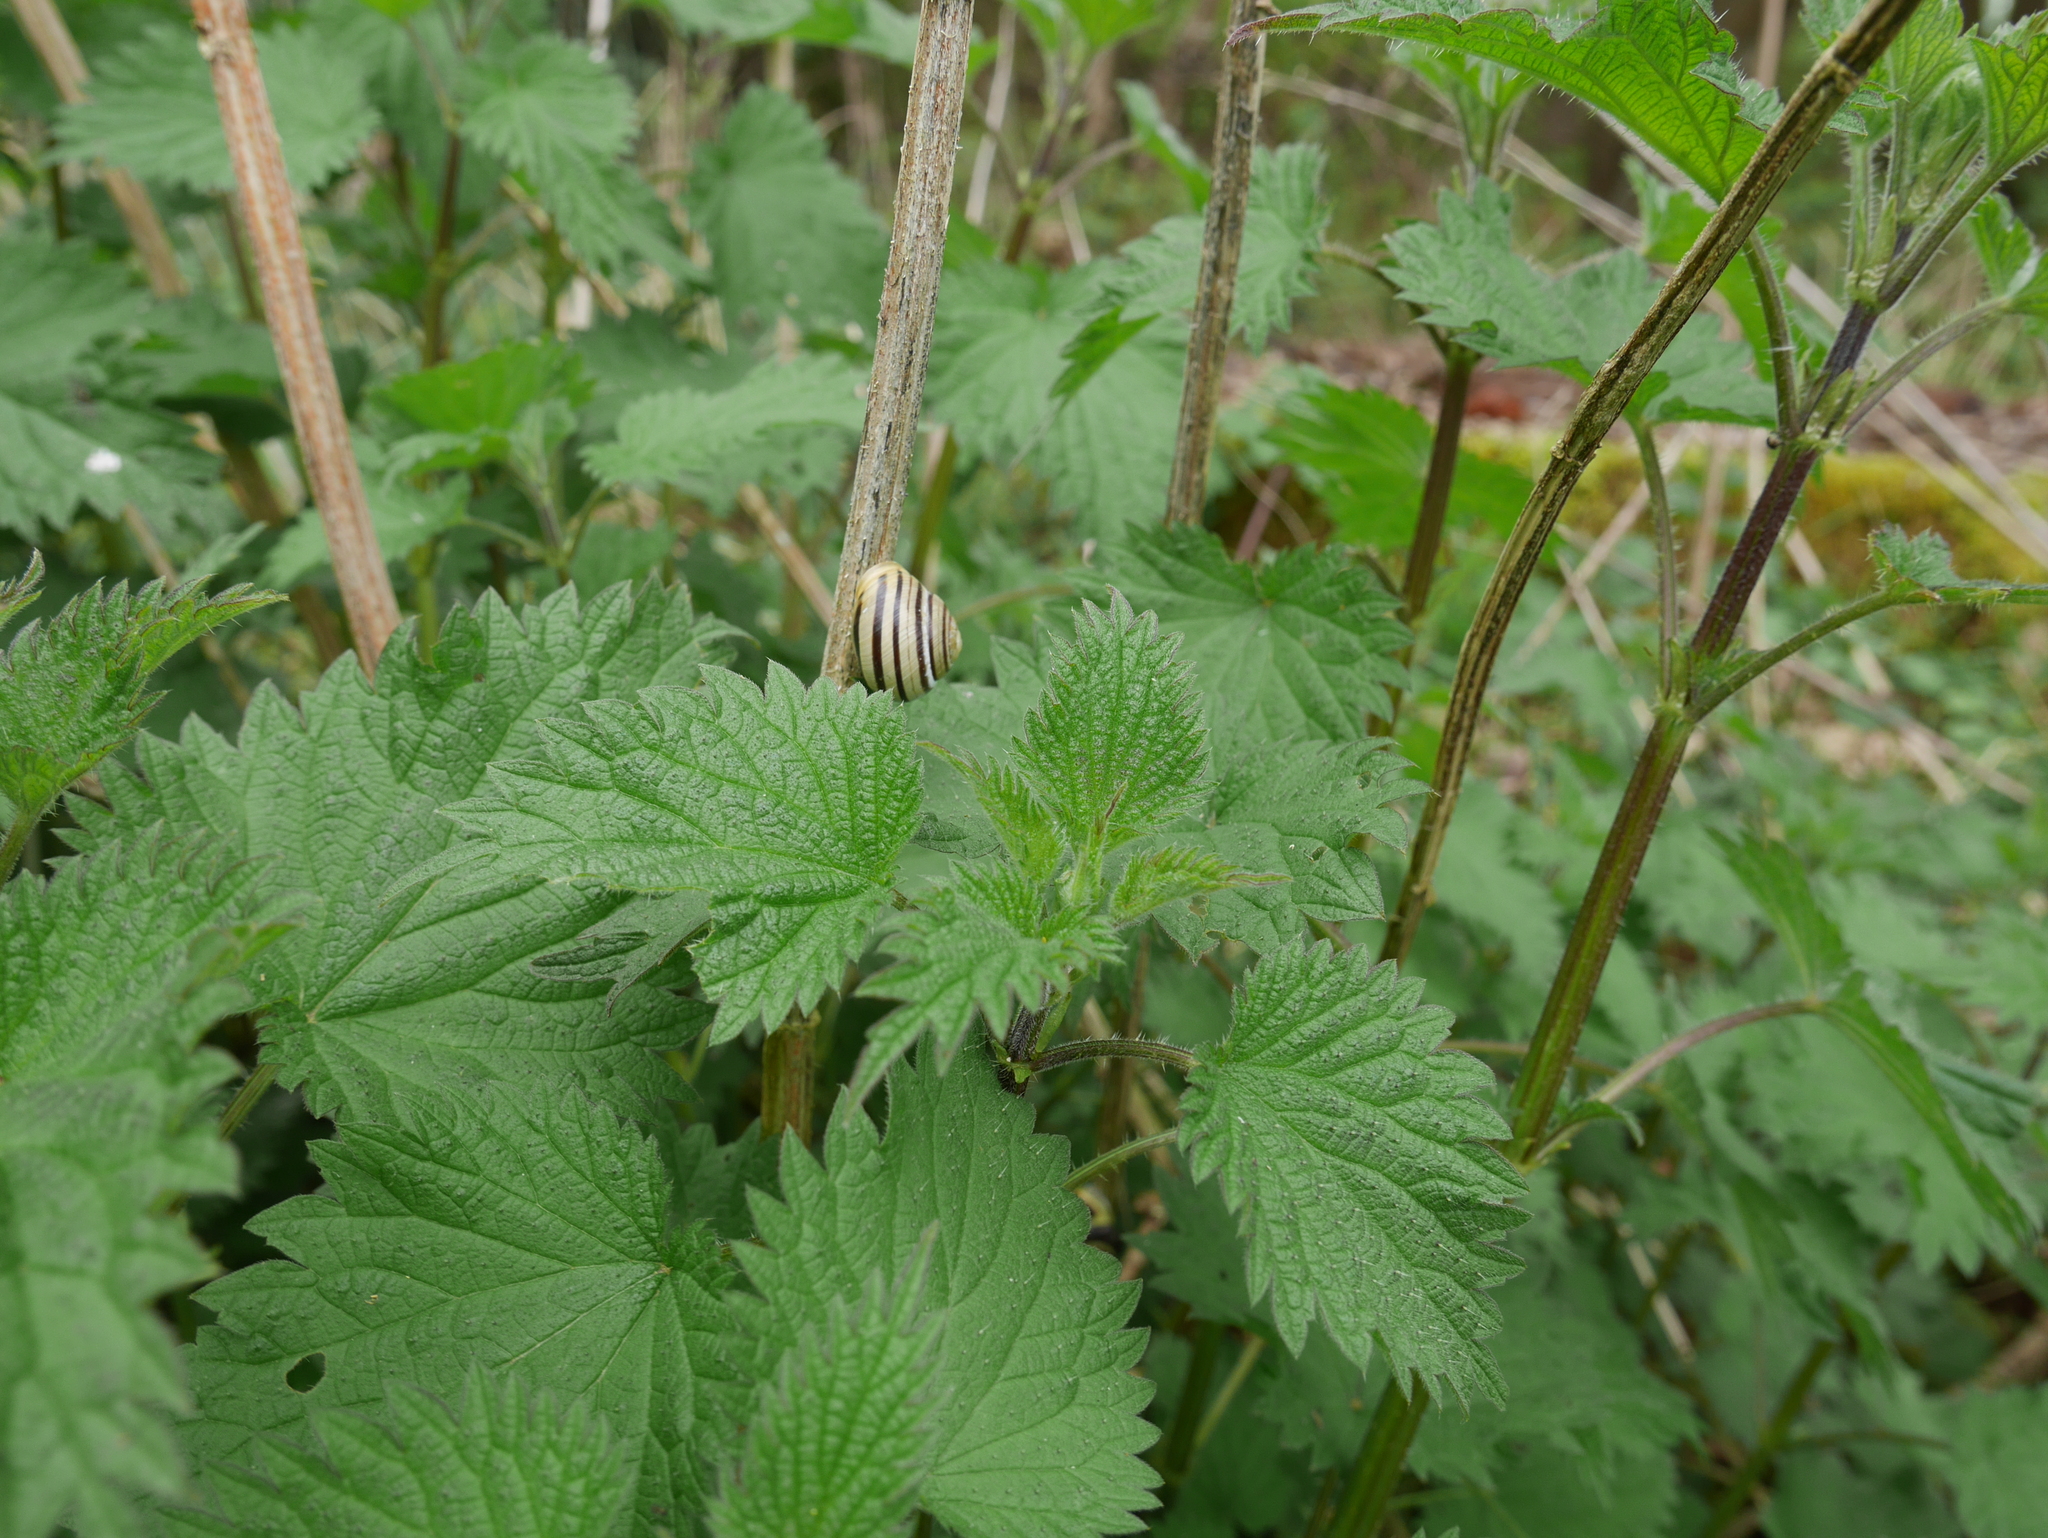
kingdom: Animalia
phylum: Mollusca
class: Gastropoda
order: Stylommatophora
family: Helicidae
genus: Cepaea
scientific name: Cepaea hortensis
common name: White-lip gardensnail
